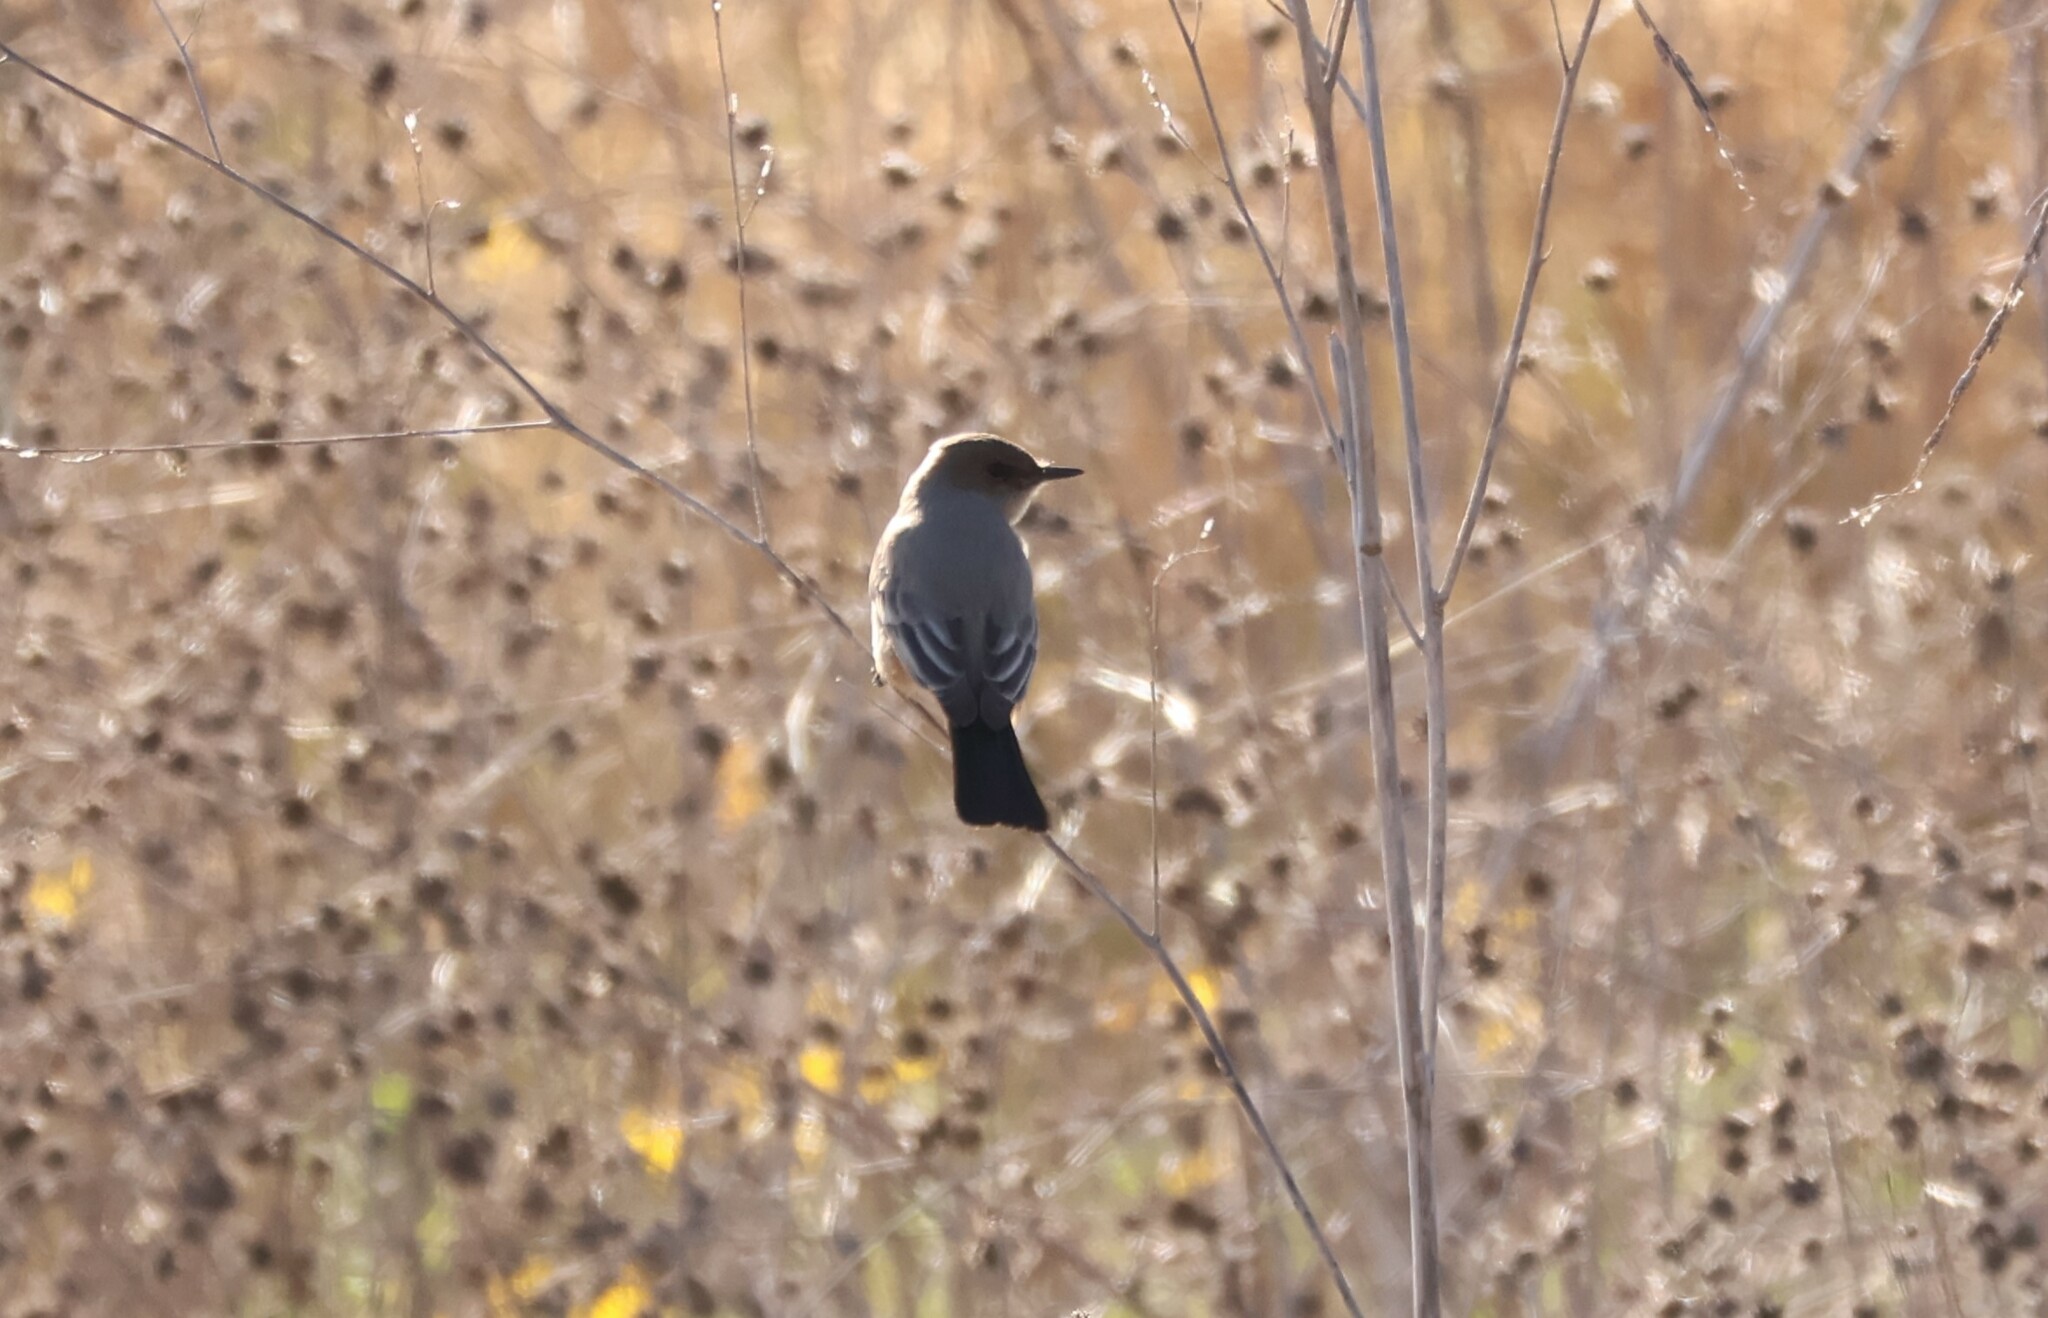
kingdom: Animalia
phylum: Chordata
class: Aves
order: Passeriformes
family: Tyrannidae
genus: Sayornis
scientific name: Sayornis saya
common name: Say's phoebe
